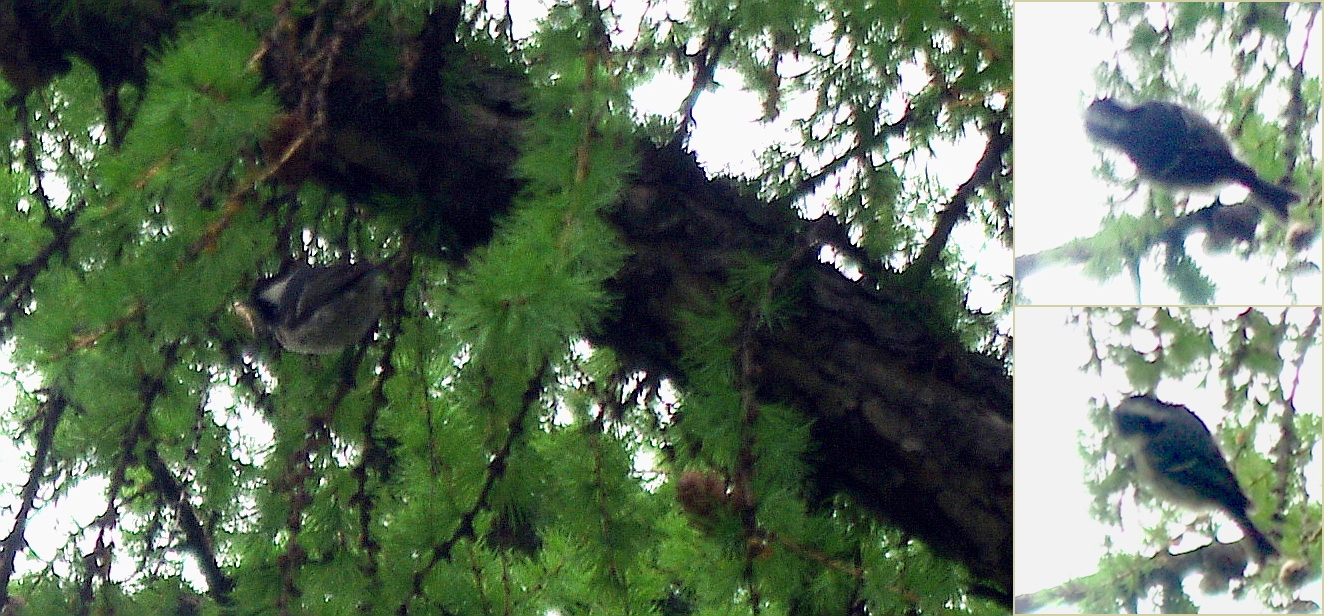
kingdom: Animalia
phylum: Chordata
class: Aves
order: Passeriformes
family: Paridae
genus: Periparus
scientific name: Periparus ater
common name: Coal tit
